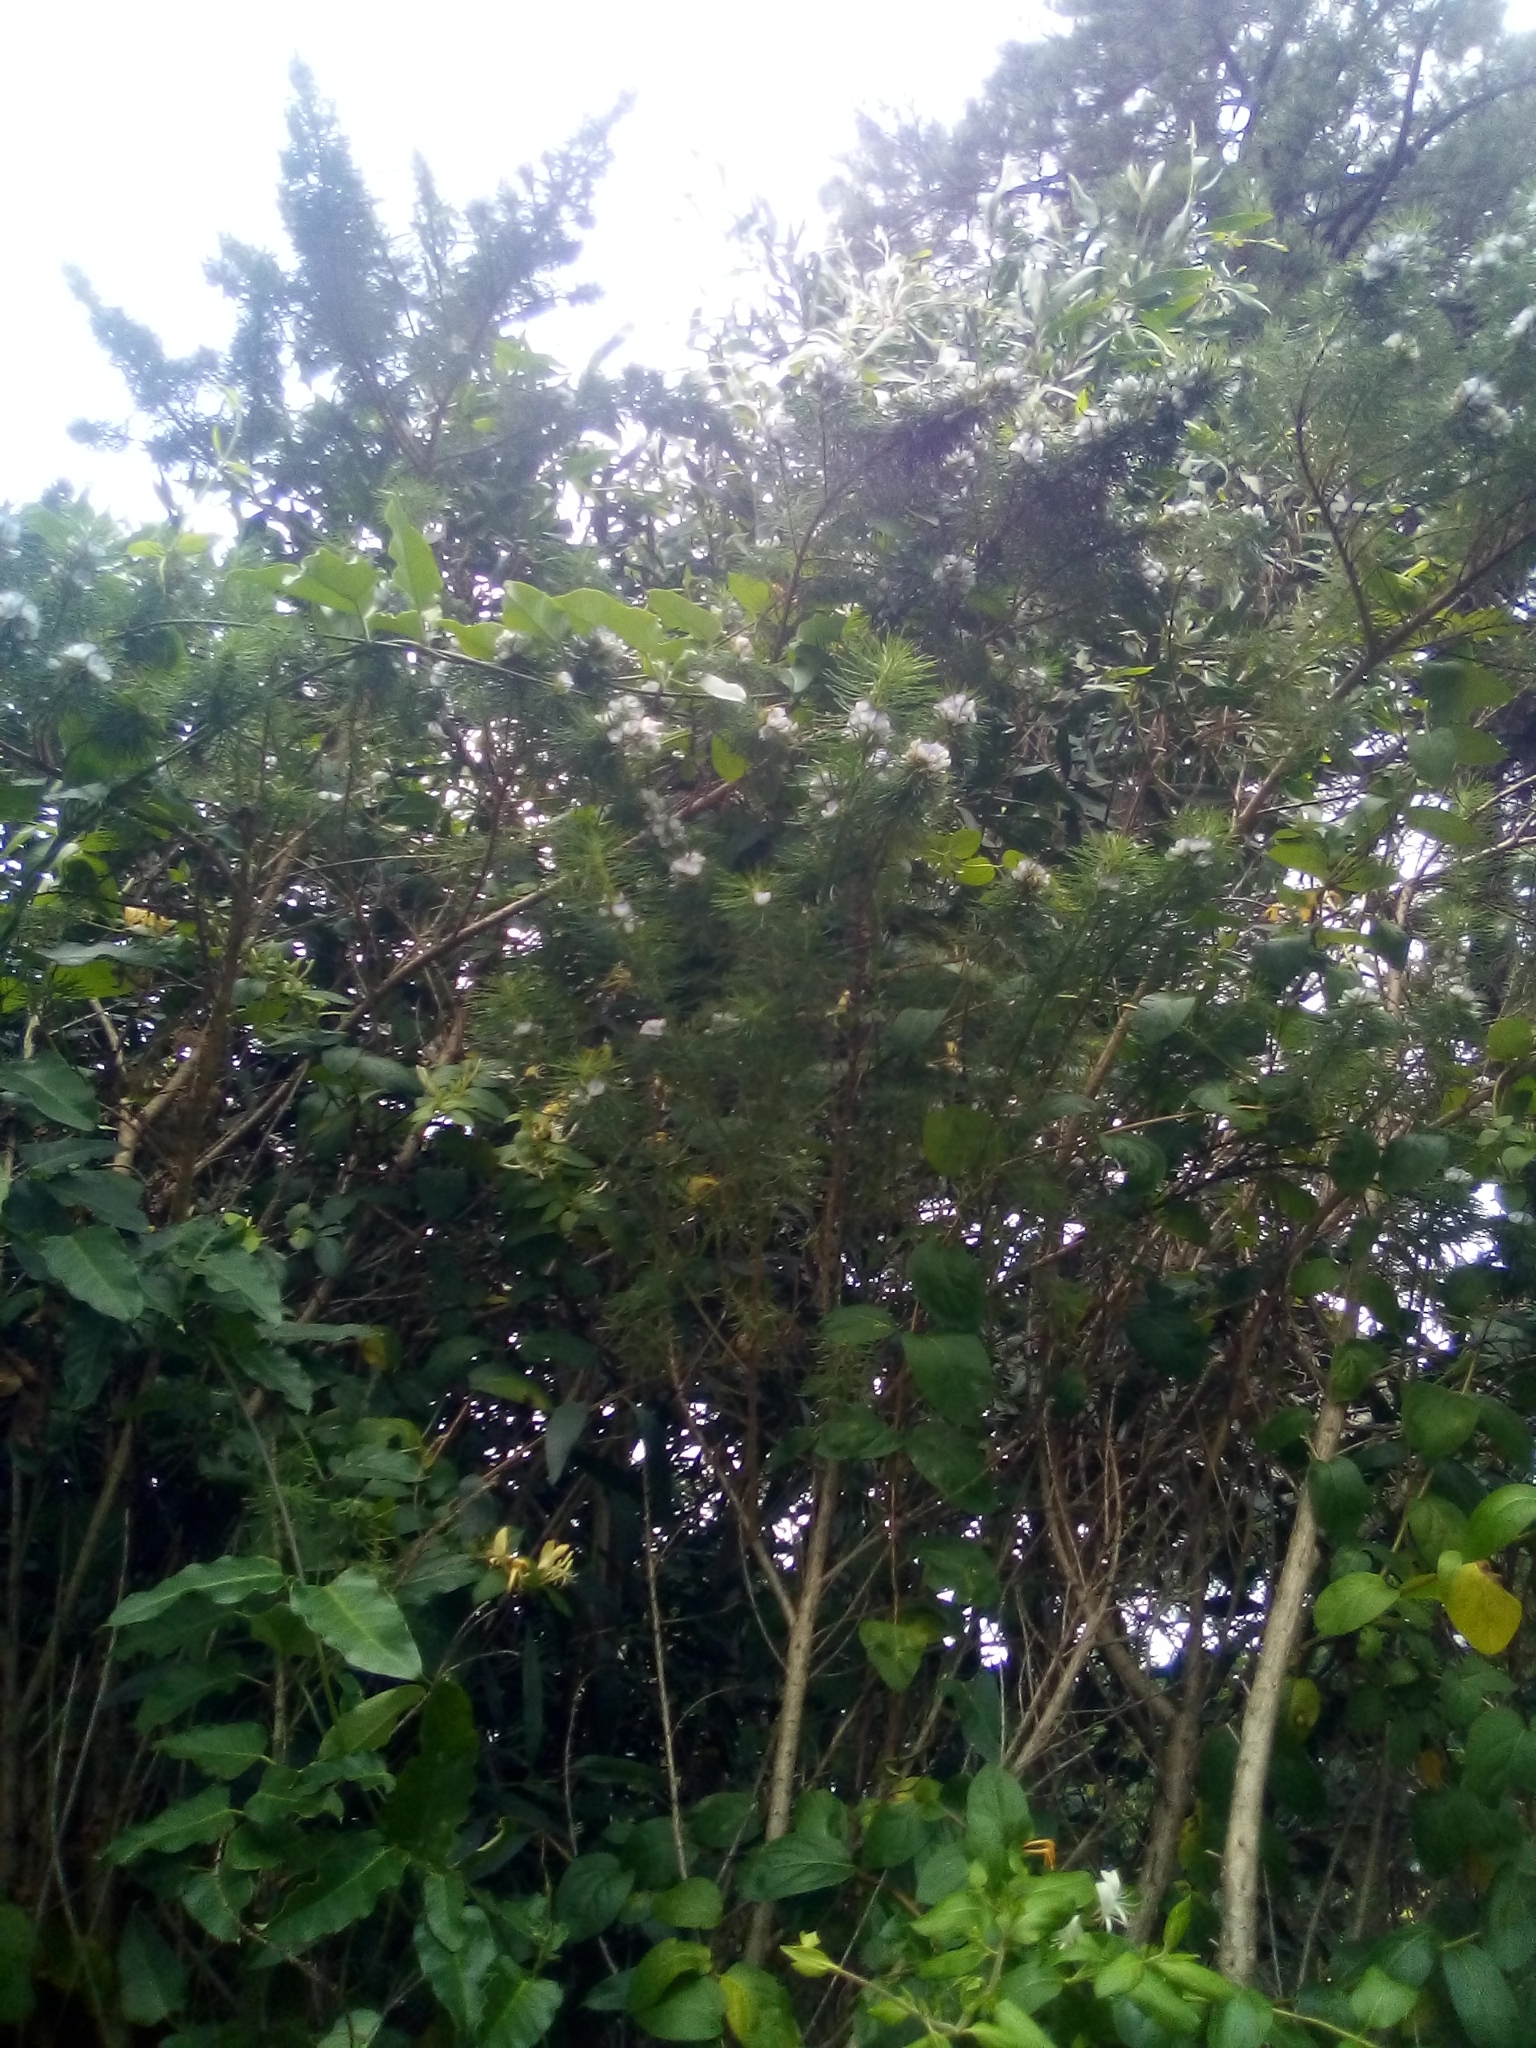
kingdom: Plantae
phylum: Tracheophyta
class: Magnoliopsida
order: Fabales
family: Fabaceae
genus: Psoralea
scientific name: Psoralea pinnata
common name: African scurfpea
